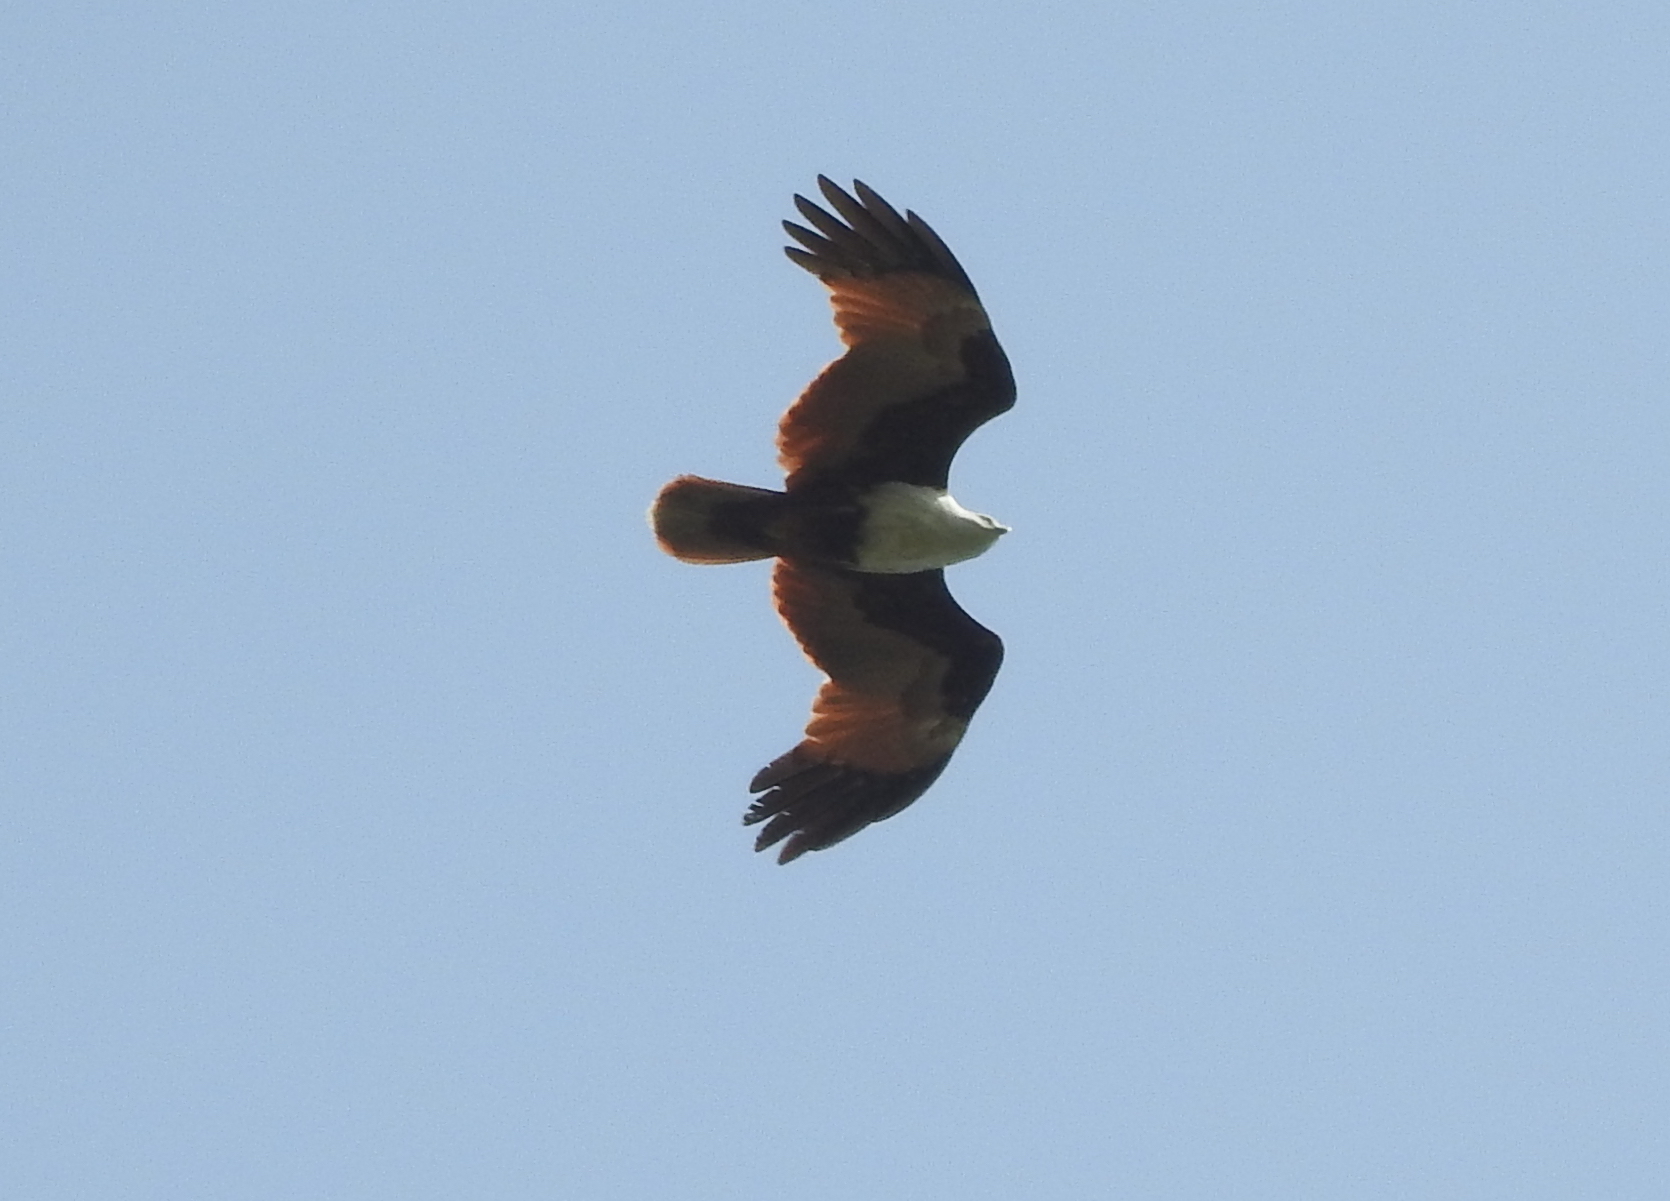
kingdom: Animalia
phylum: Chordata
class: Aves
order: Accipitriformes
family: Accipitridae
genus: Haliastur
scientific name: Haliastur indus
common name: Brahminy kite
